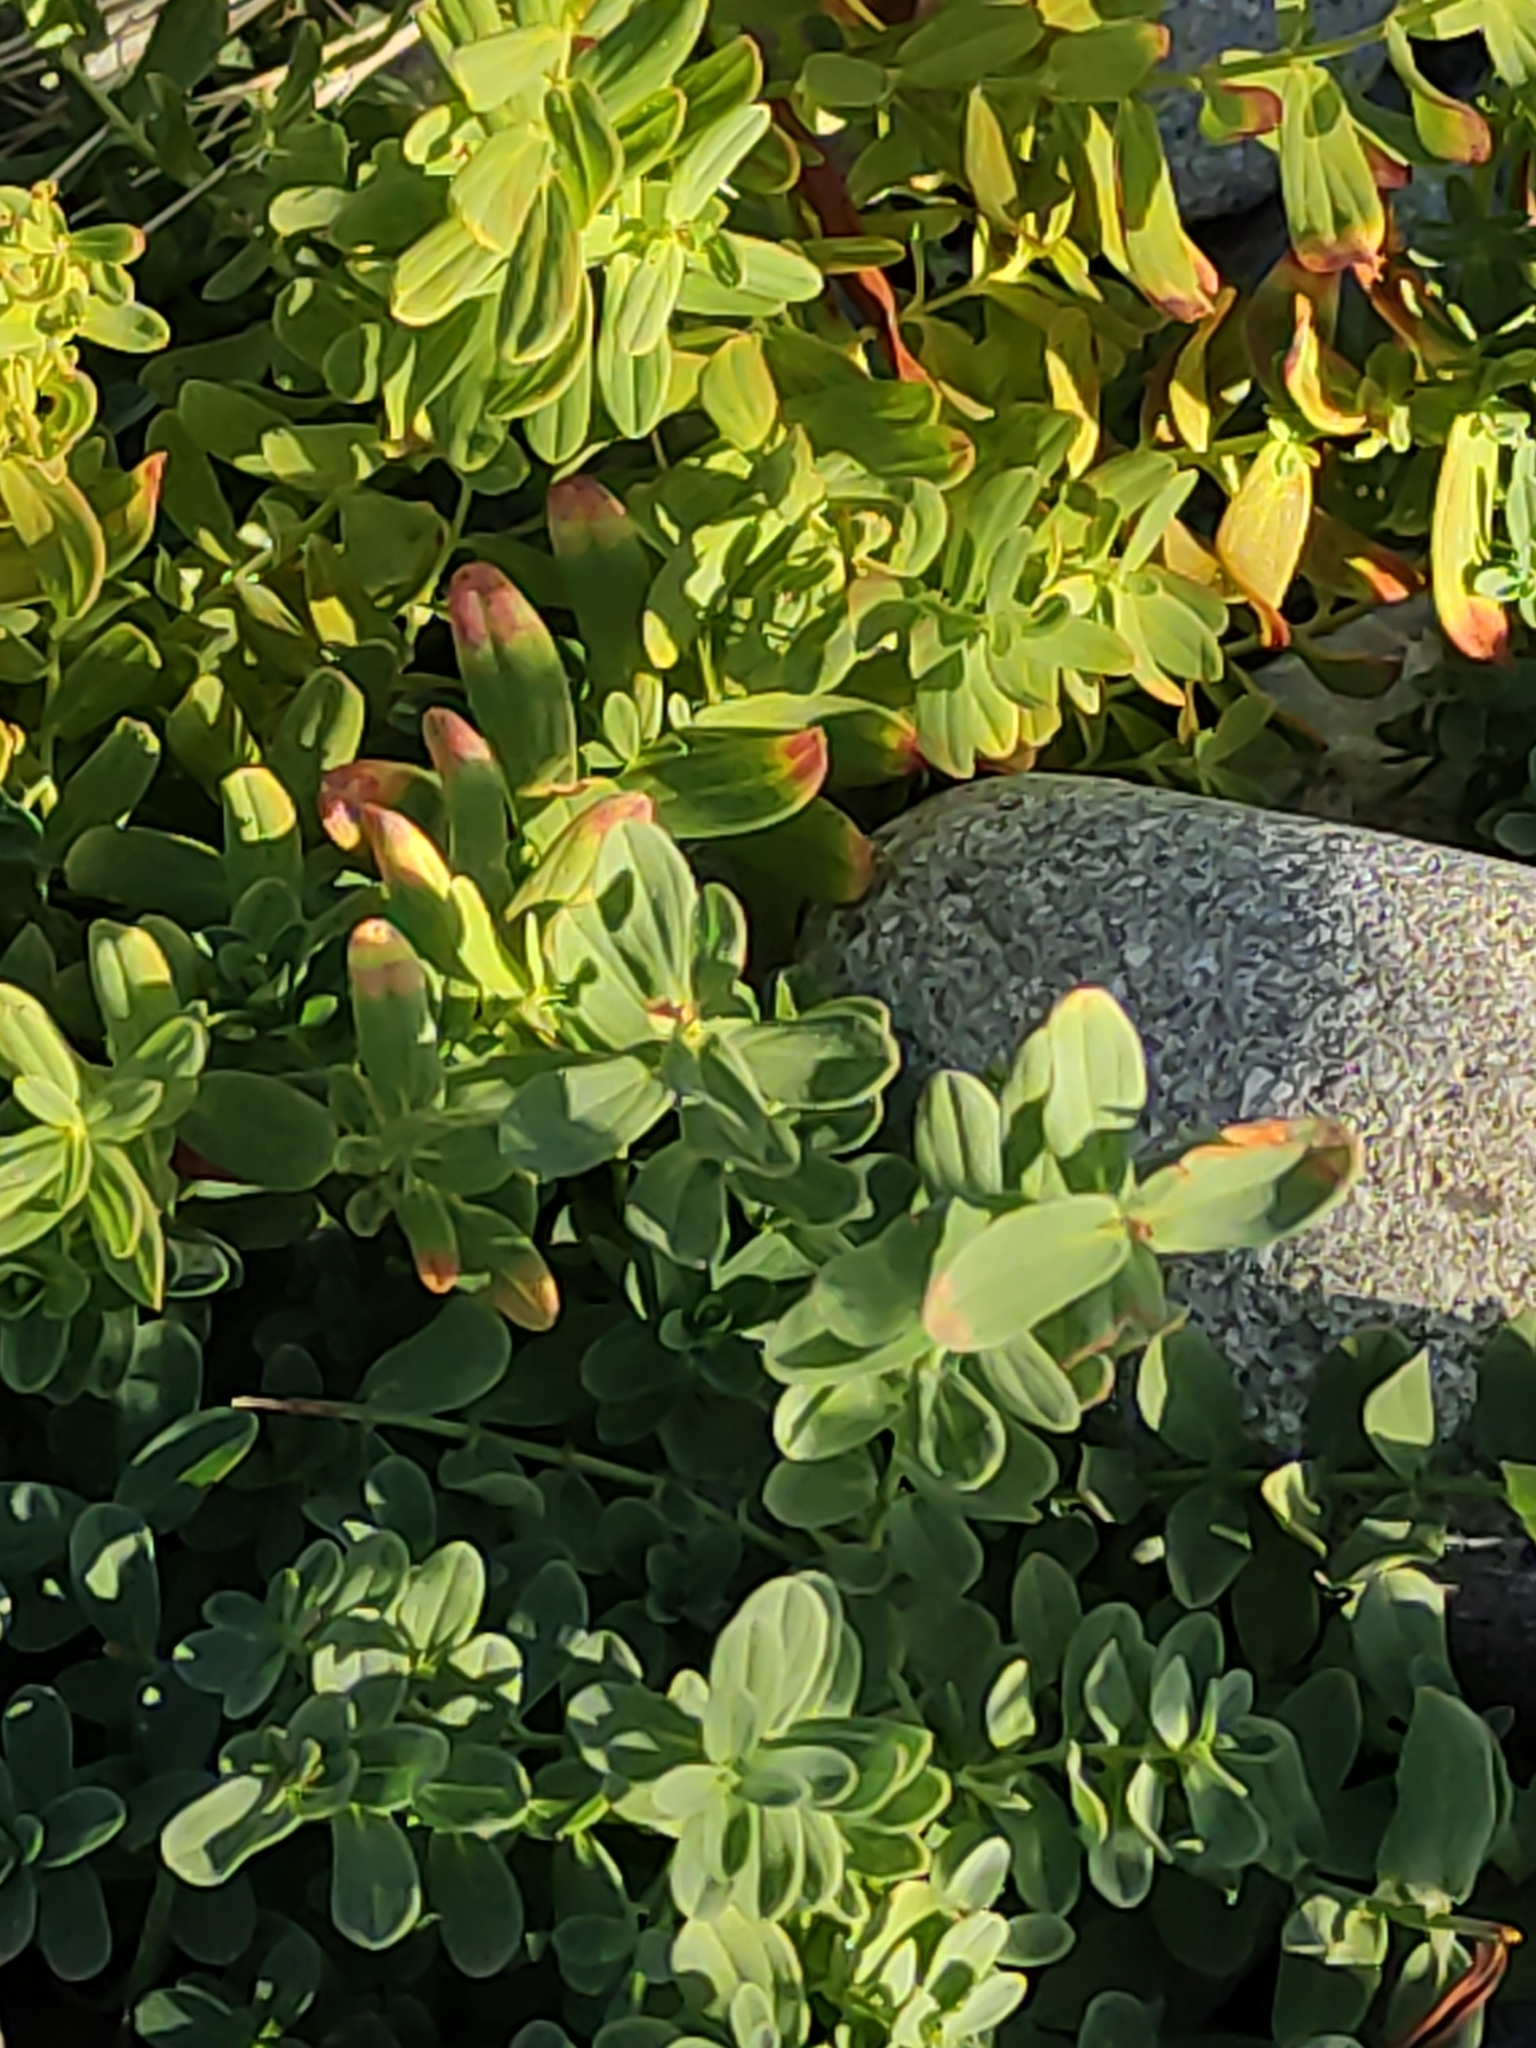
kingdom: Plantae
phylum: Tracheophyta
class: Magnoliopsida
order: Malpighiales
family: Hypericaceae
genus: Hypericum
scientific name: Hypericum perforatum
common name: Common st. johnswort
